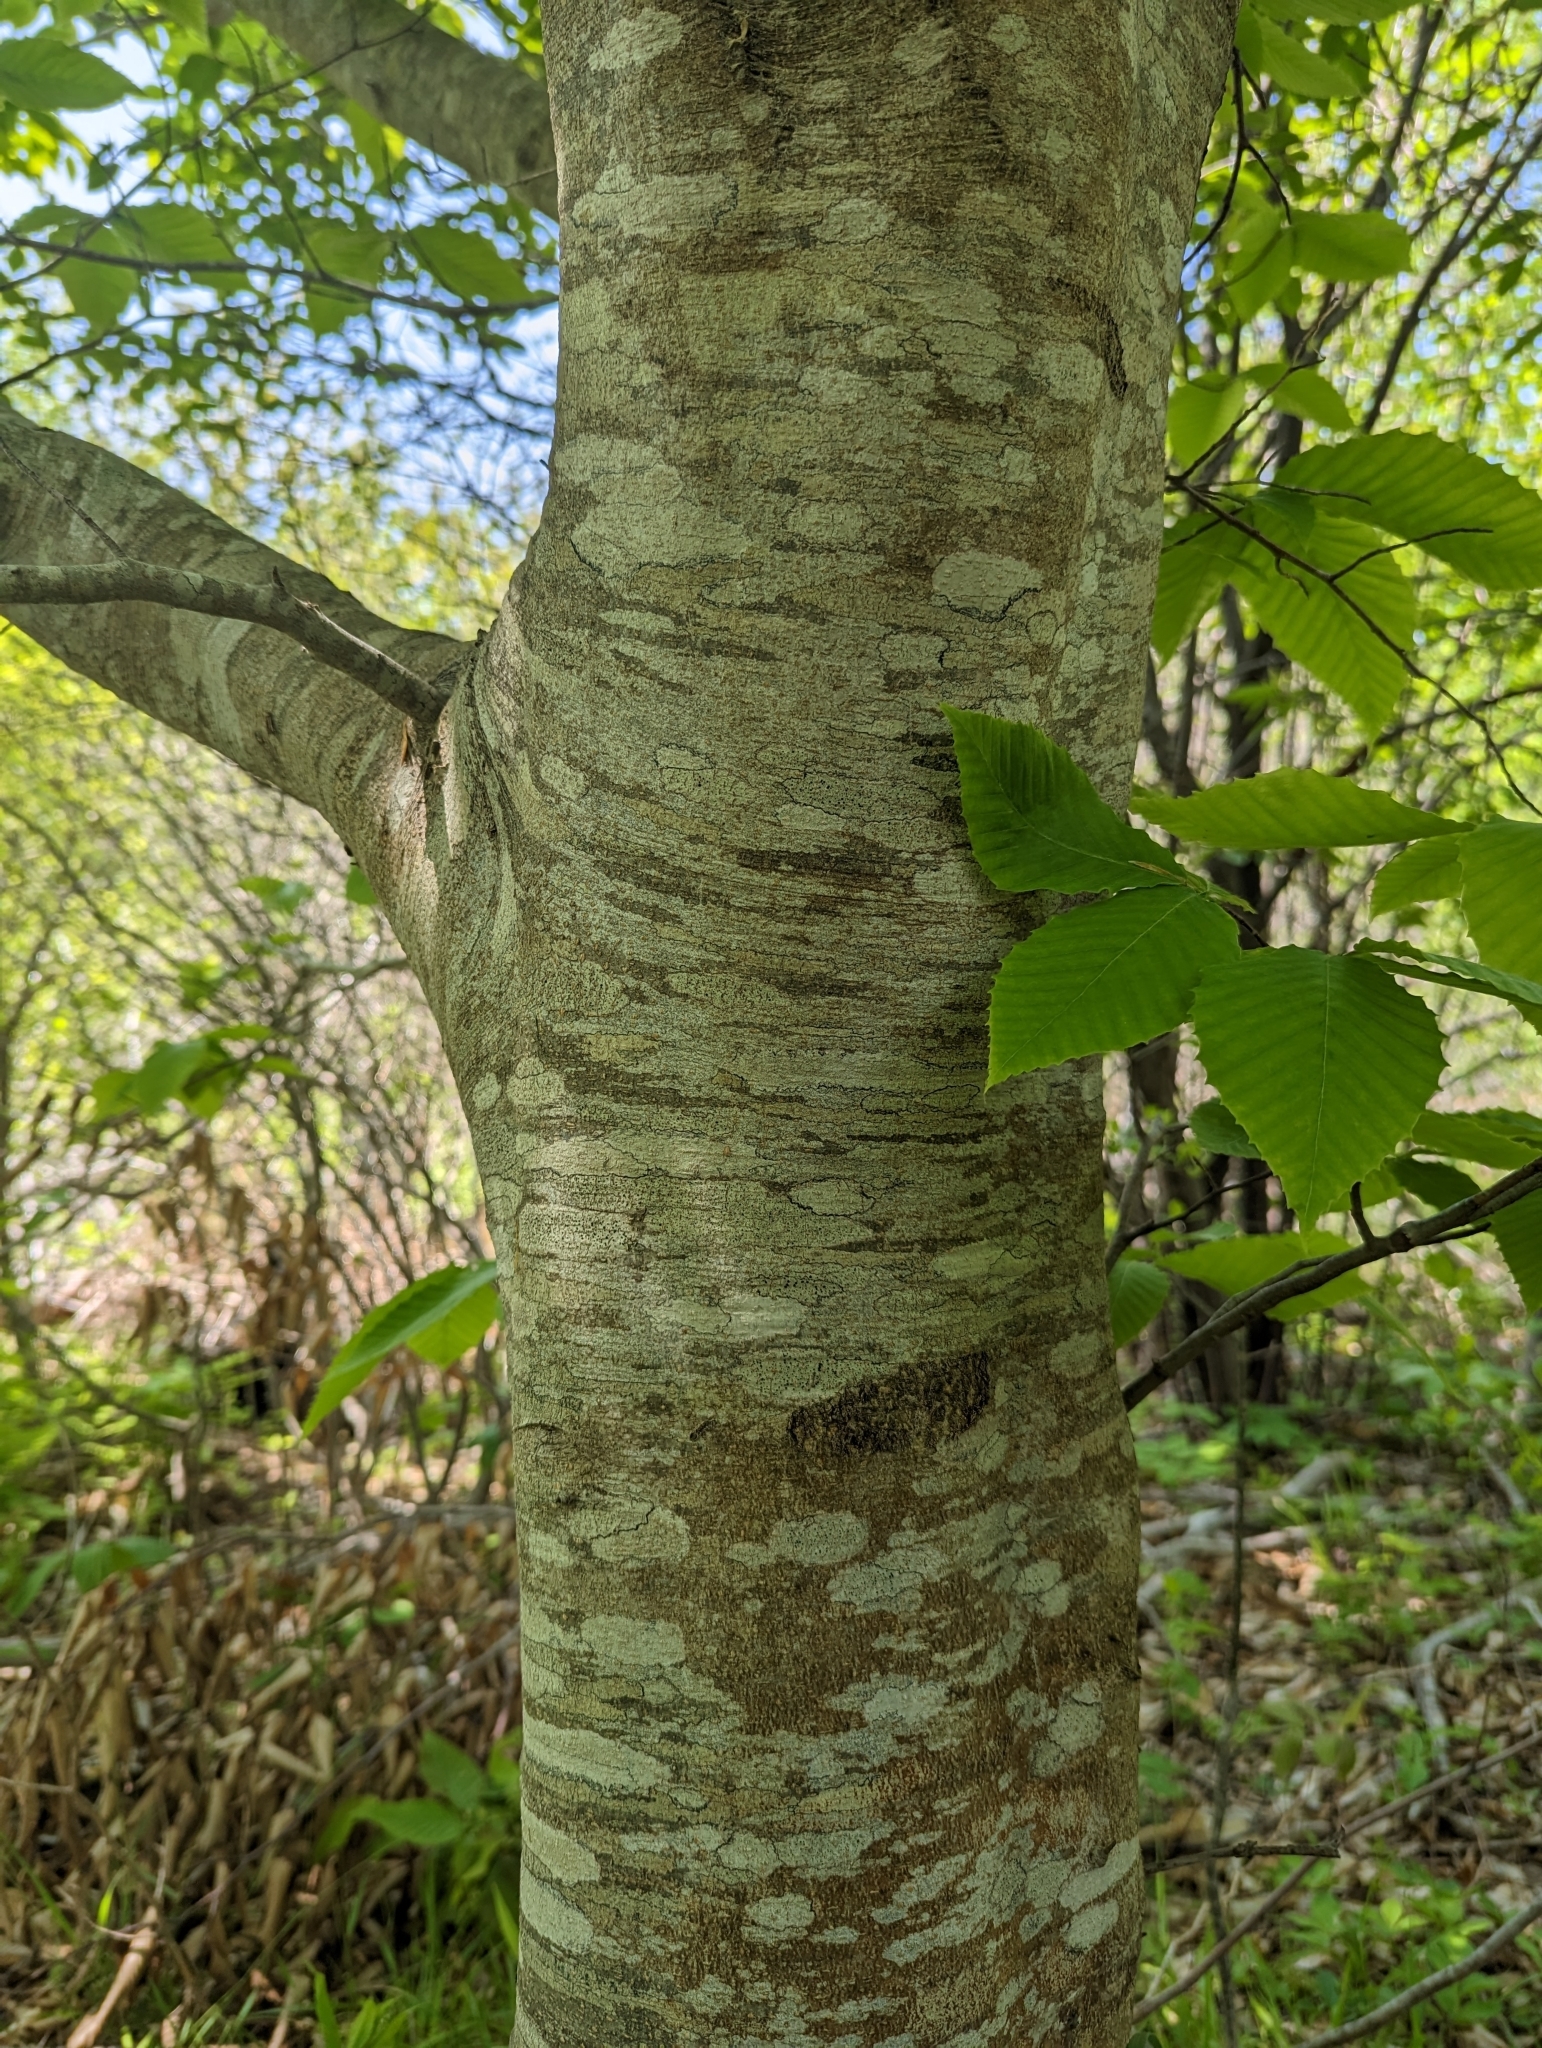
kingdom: Plantae
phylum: Tracheophyta
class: Magnoliopsida
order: Fagales
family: Fagaceae
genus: Fagus
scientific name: Fagus grandifolia
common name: American beech
